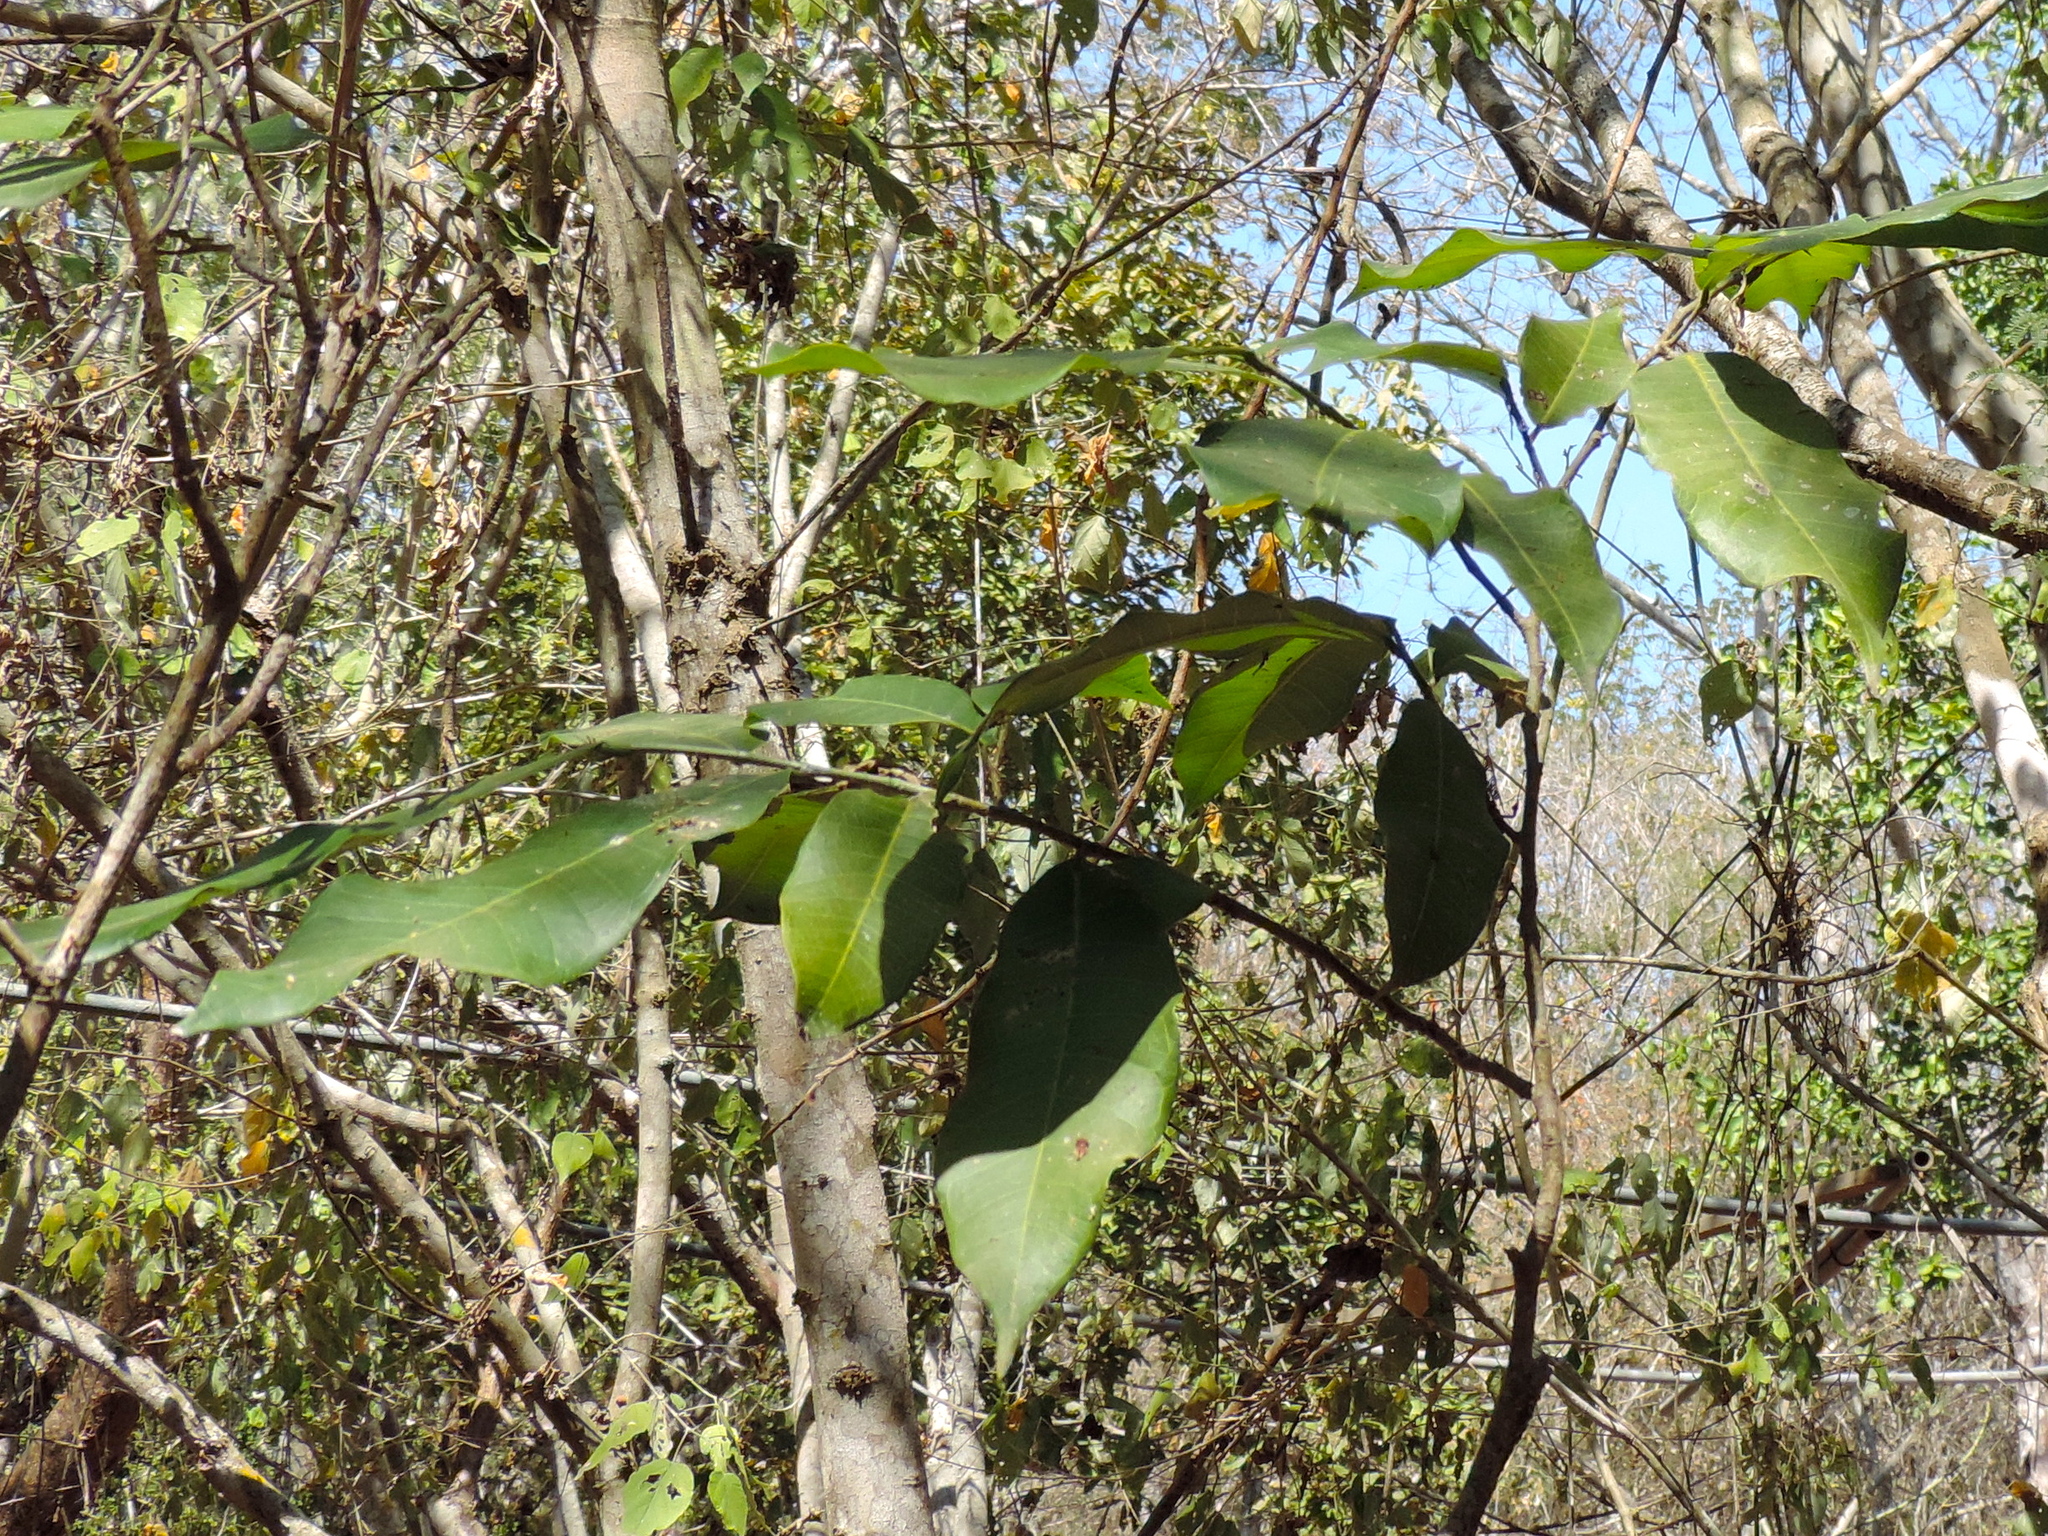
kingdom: Plantae
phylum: Tracheophyta
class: Magnoliopsida
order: Rosales
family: Moraceae
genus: Brosimum
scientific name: Brosimum alicastrum
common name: Breadnut
